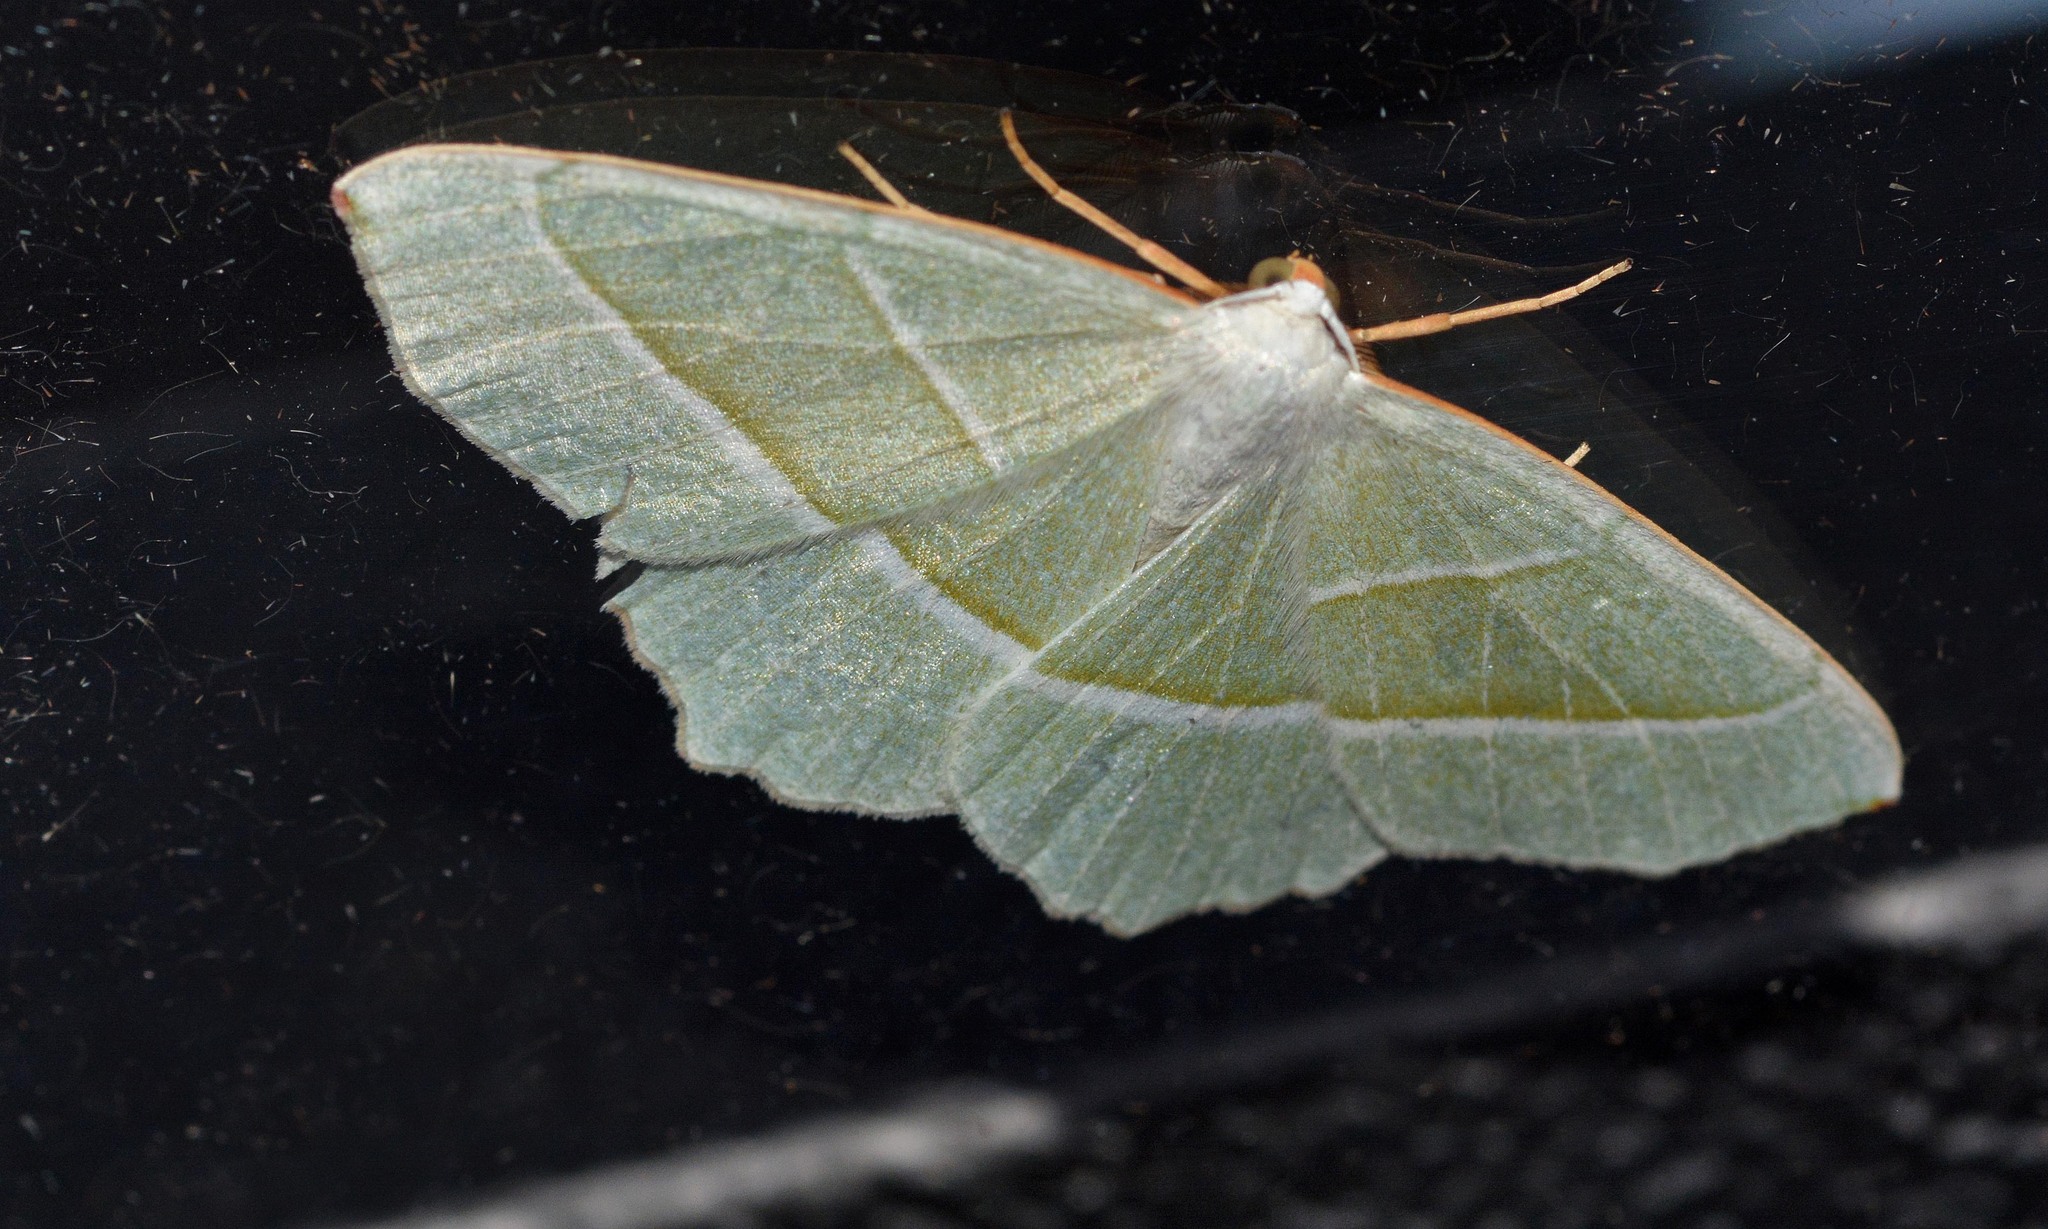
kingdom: Animalia
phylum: Arthropoda
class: Insecta
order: Lepidoptera
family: Geometridae
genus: Campaea
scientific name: Campaea margaritaria
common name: Light emerald
